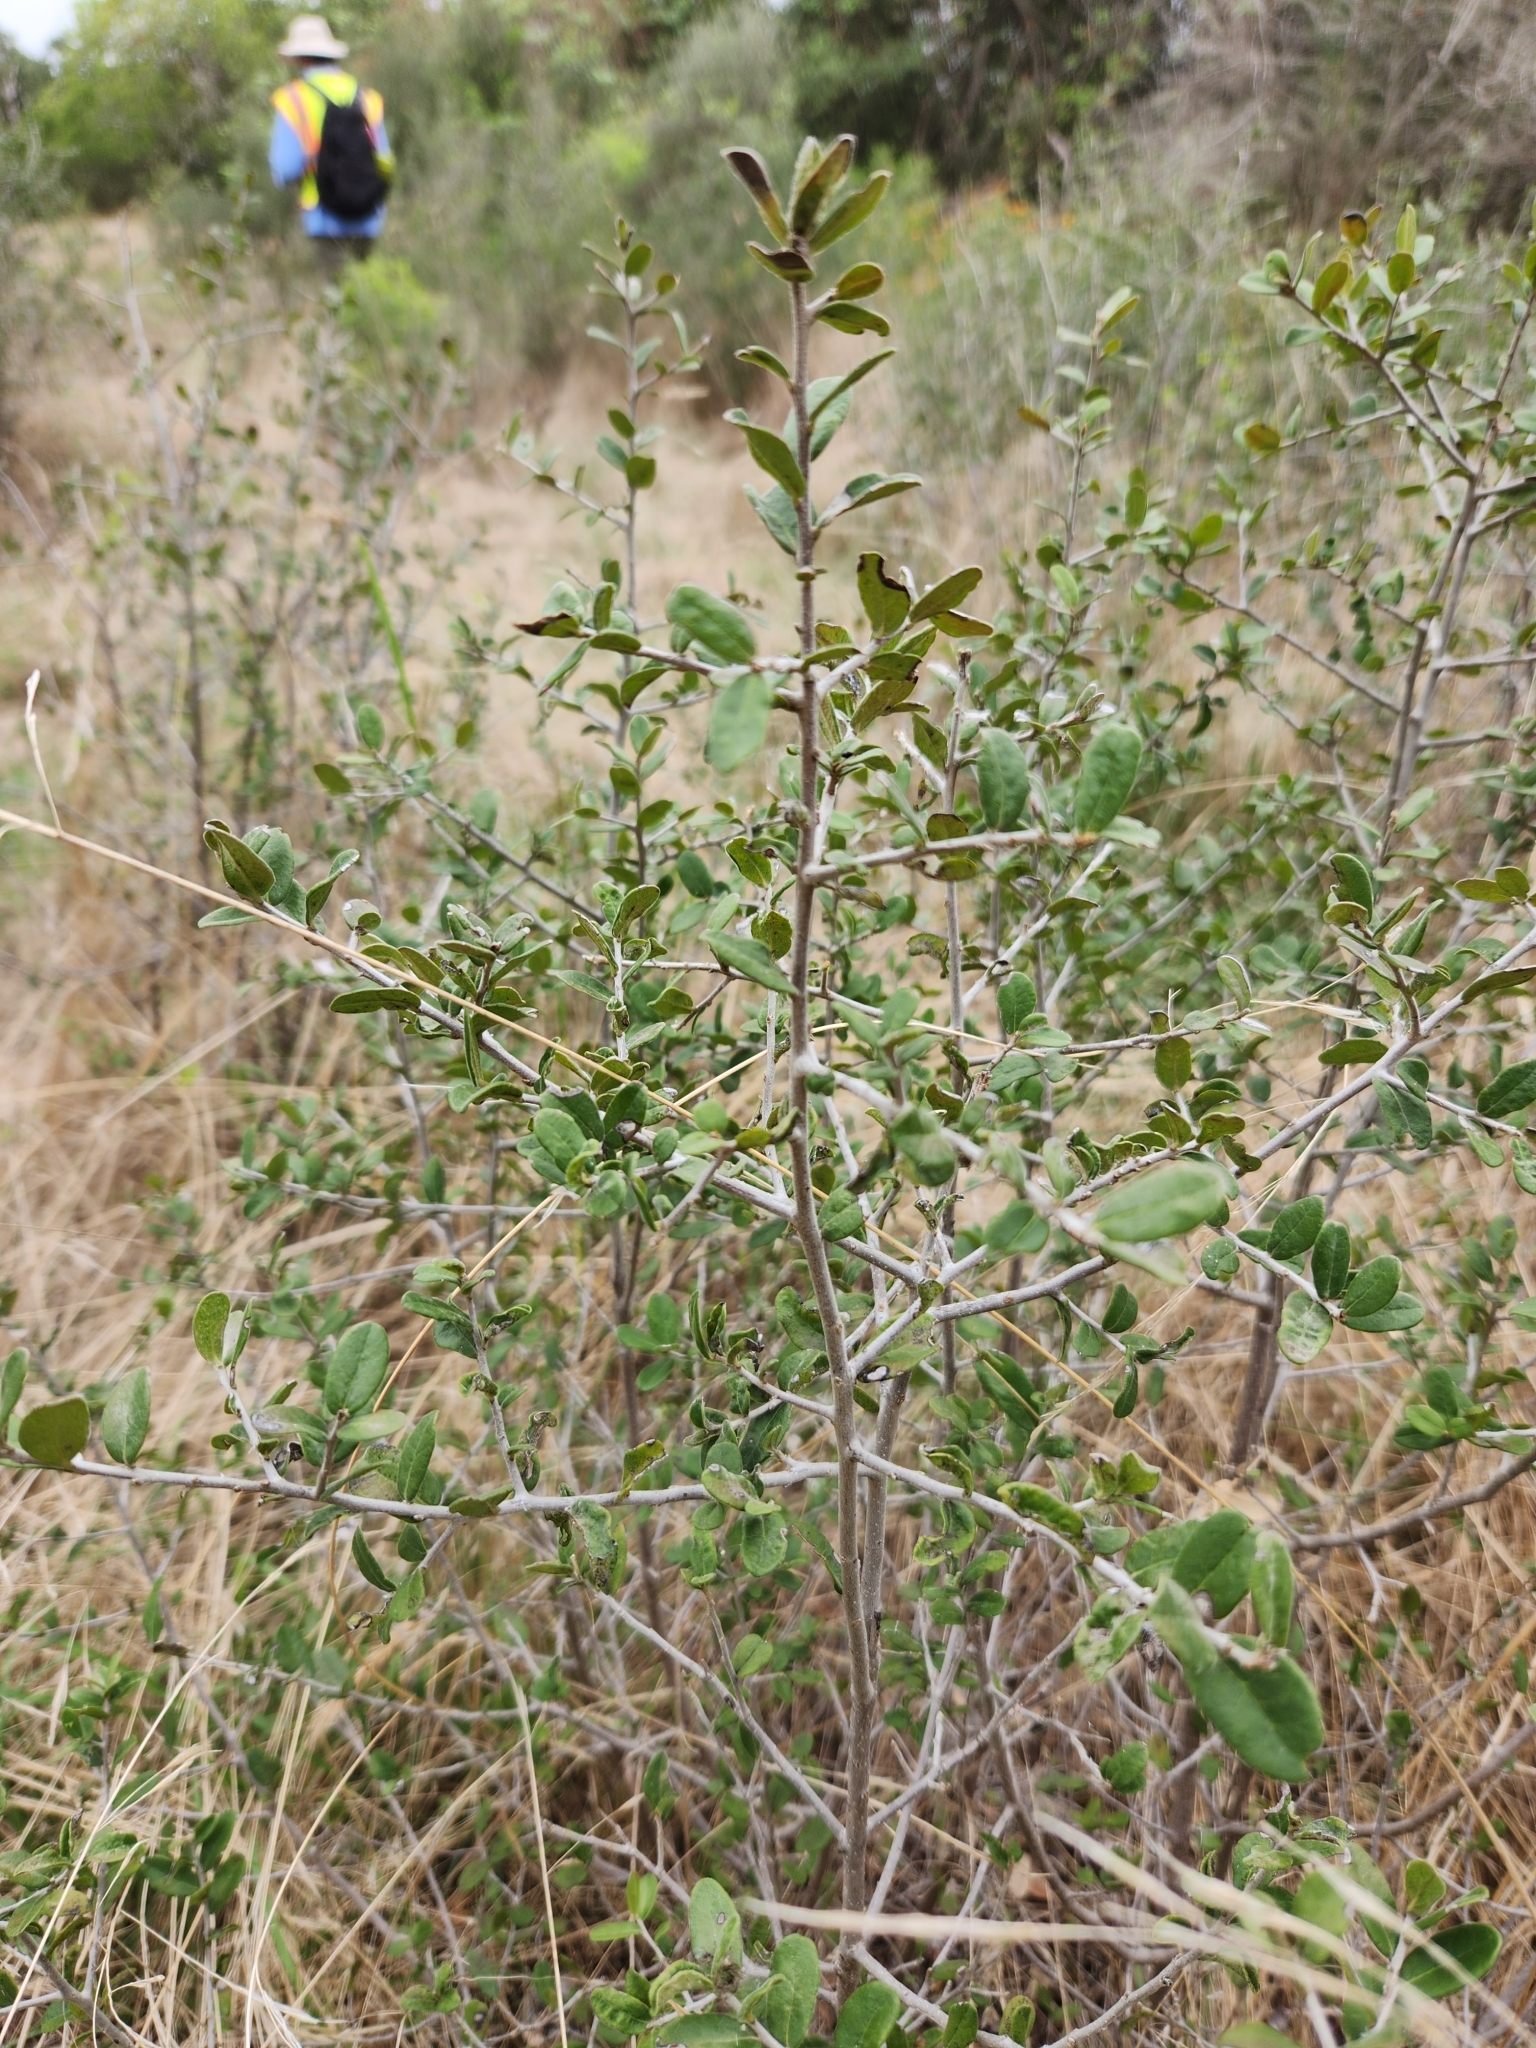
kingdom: Plantae
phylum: Tracheophyta
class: Magnoliopsida
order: Ericales
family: Ebenaceae
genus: Diospyros
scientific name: Diospyros texana
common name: Texas persimmon
